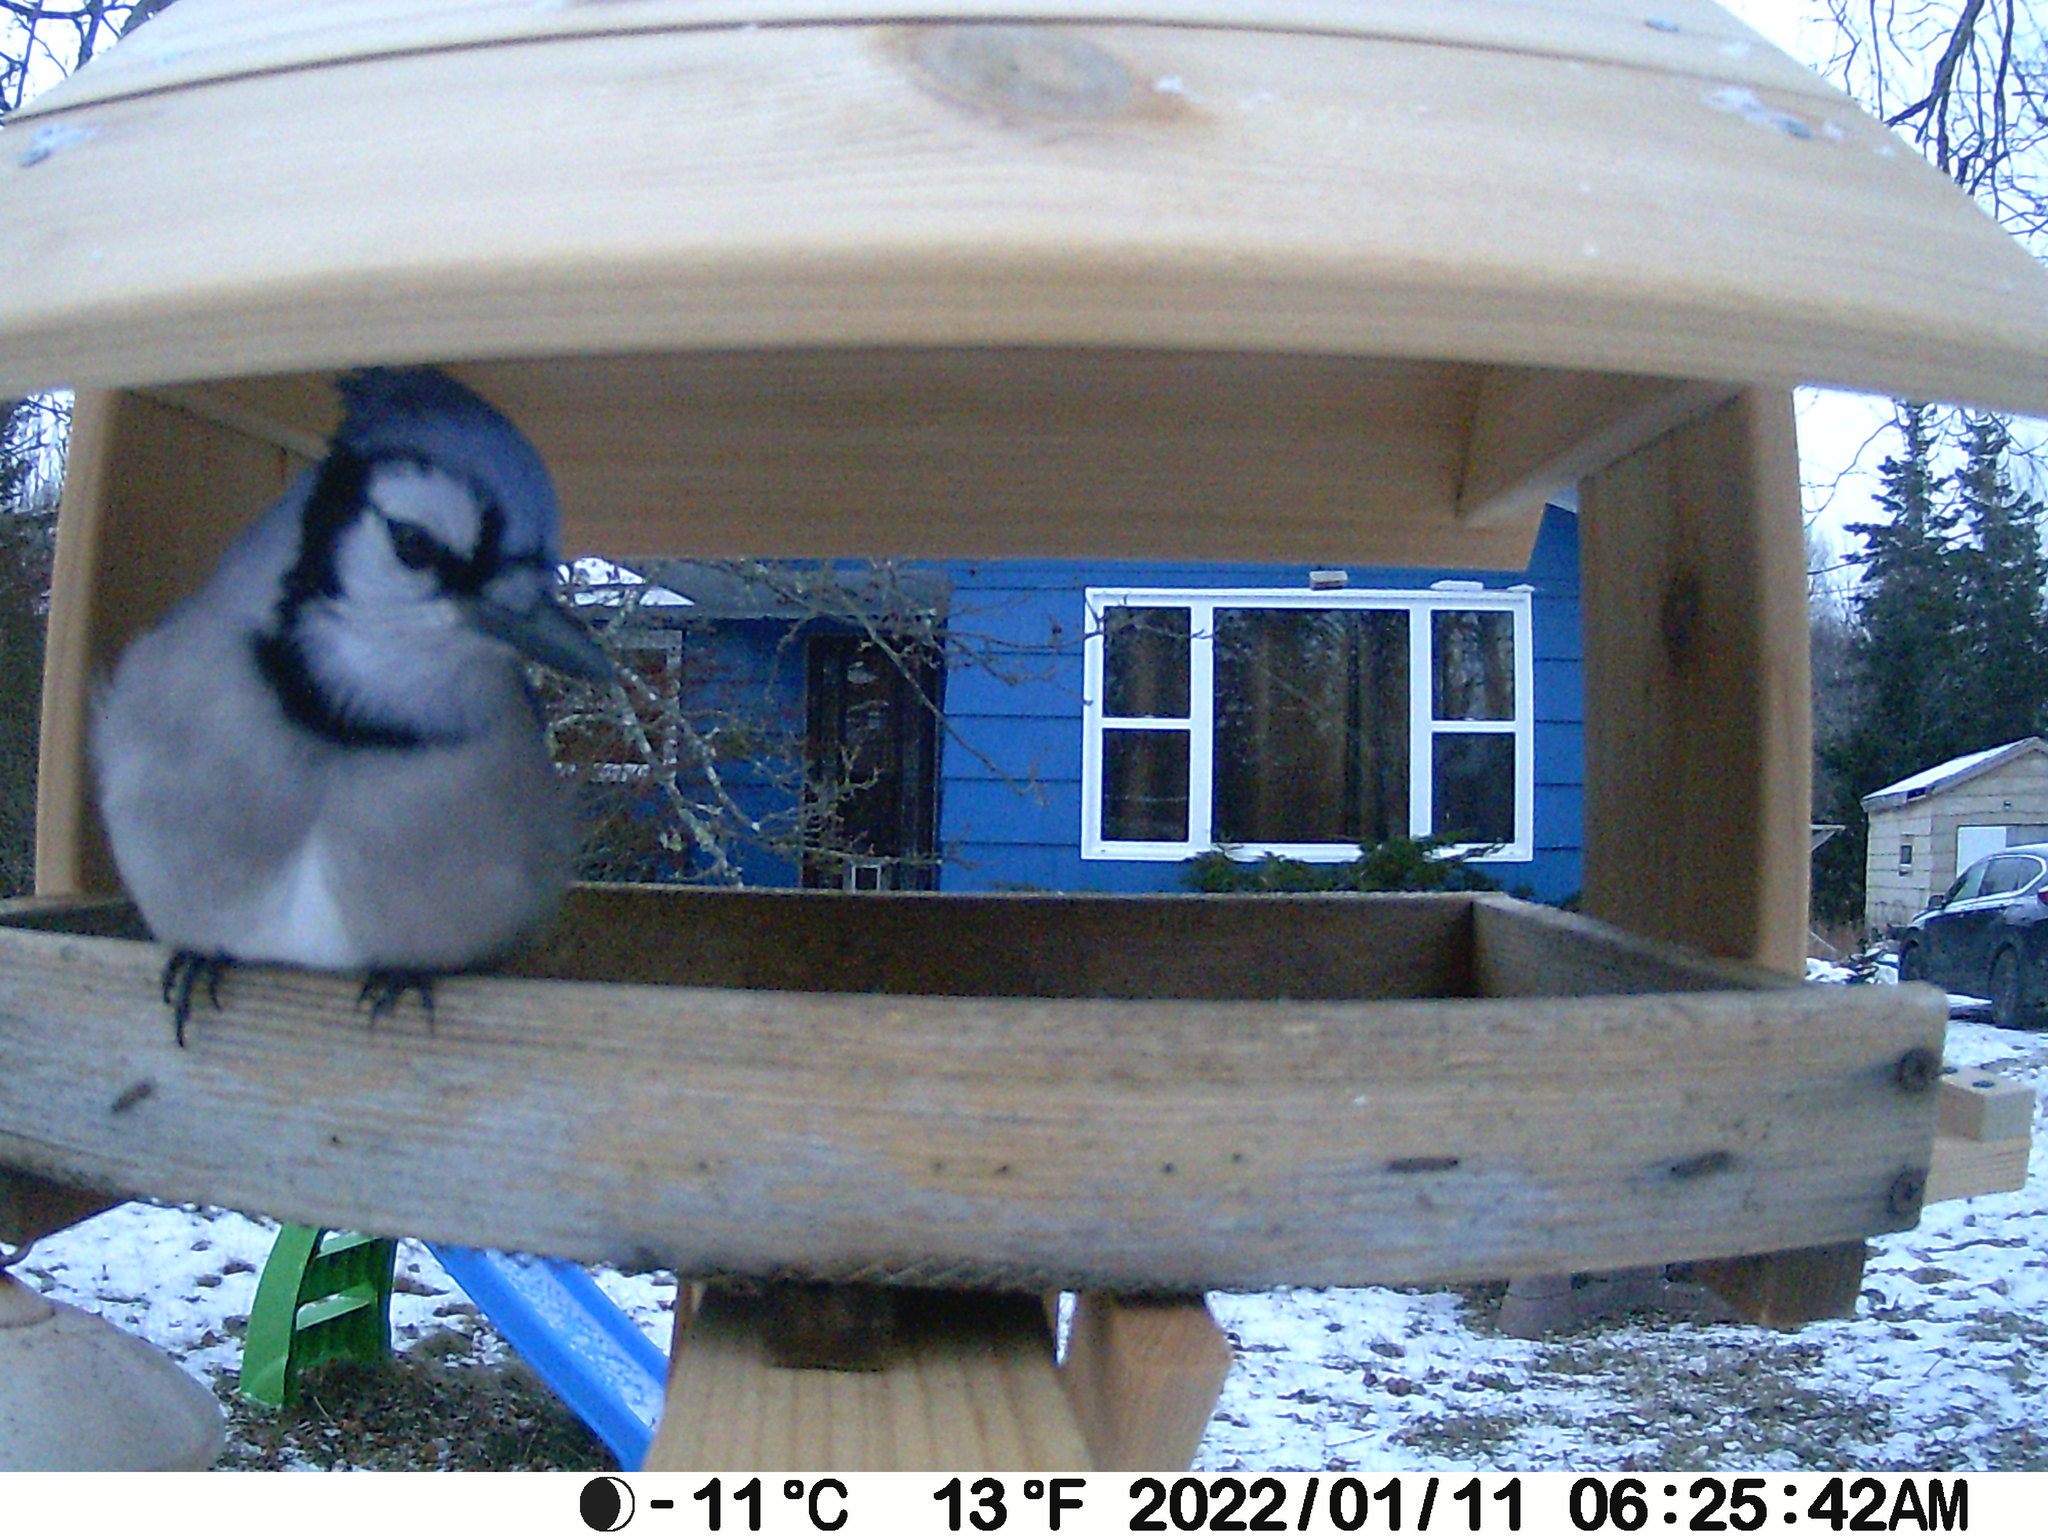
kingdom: Animalia
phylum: Chordata
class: Aves
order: Passeriformes
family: Corvidae
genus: Cyanocitta
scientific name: Cyanocitta cristata
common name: Blue jay
